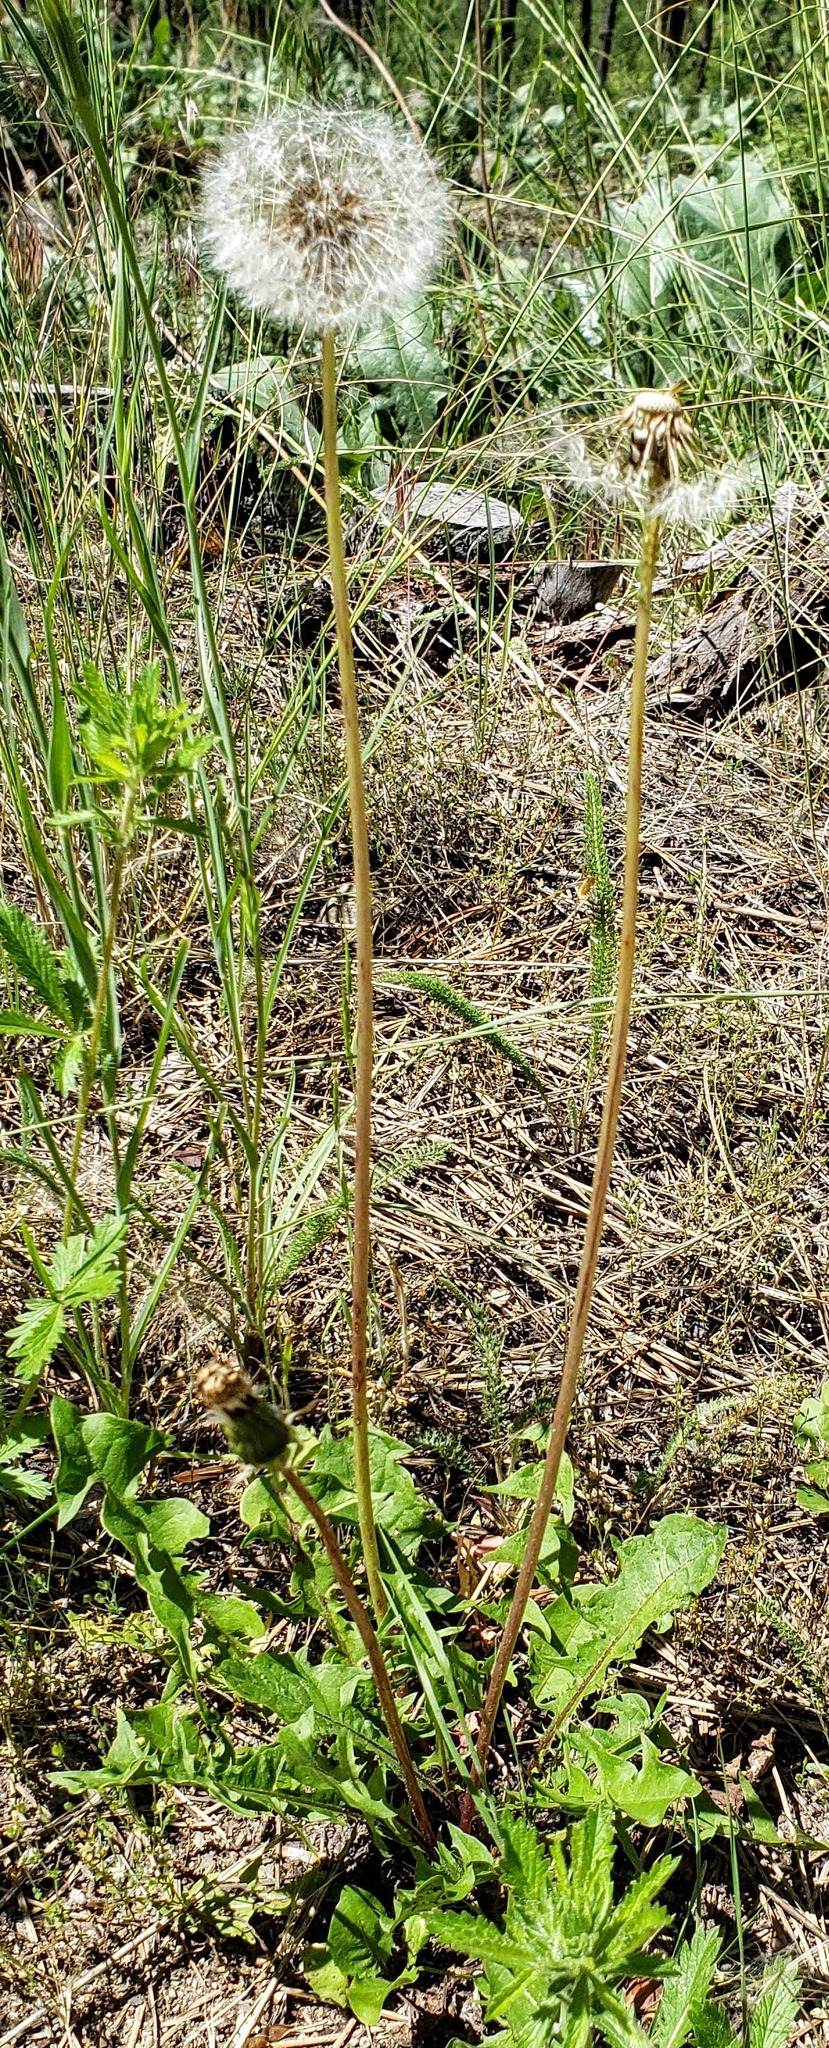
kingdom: Plantae
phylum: Tracheophyta
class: Magnoliopsida
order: Asterales
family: Asteraceae
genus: Taraxacum
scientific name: Taraxacum officinale
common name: Common dandelion
